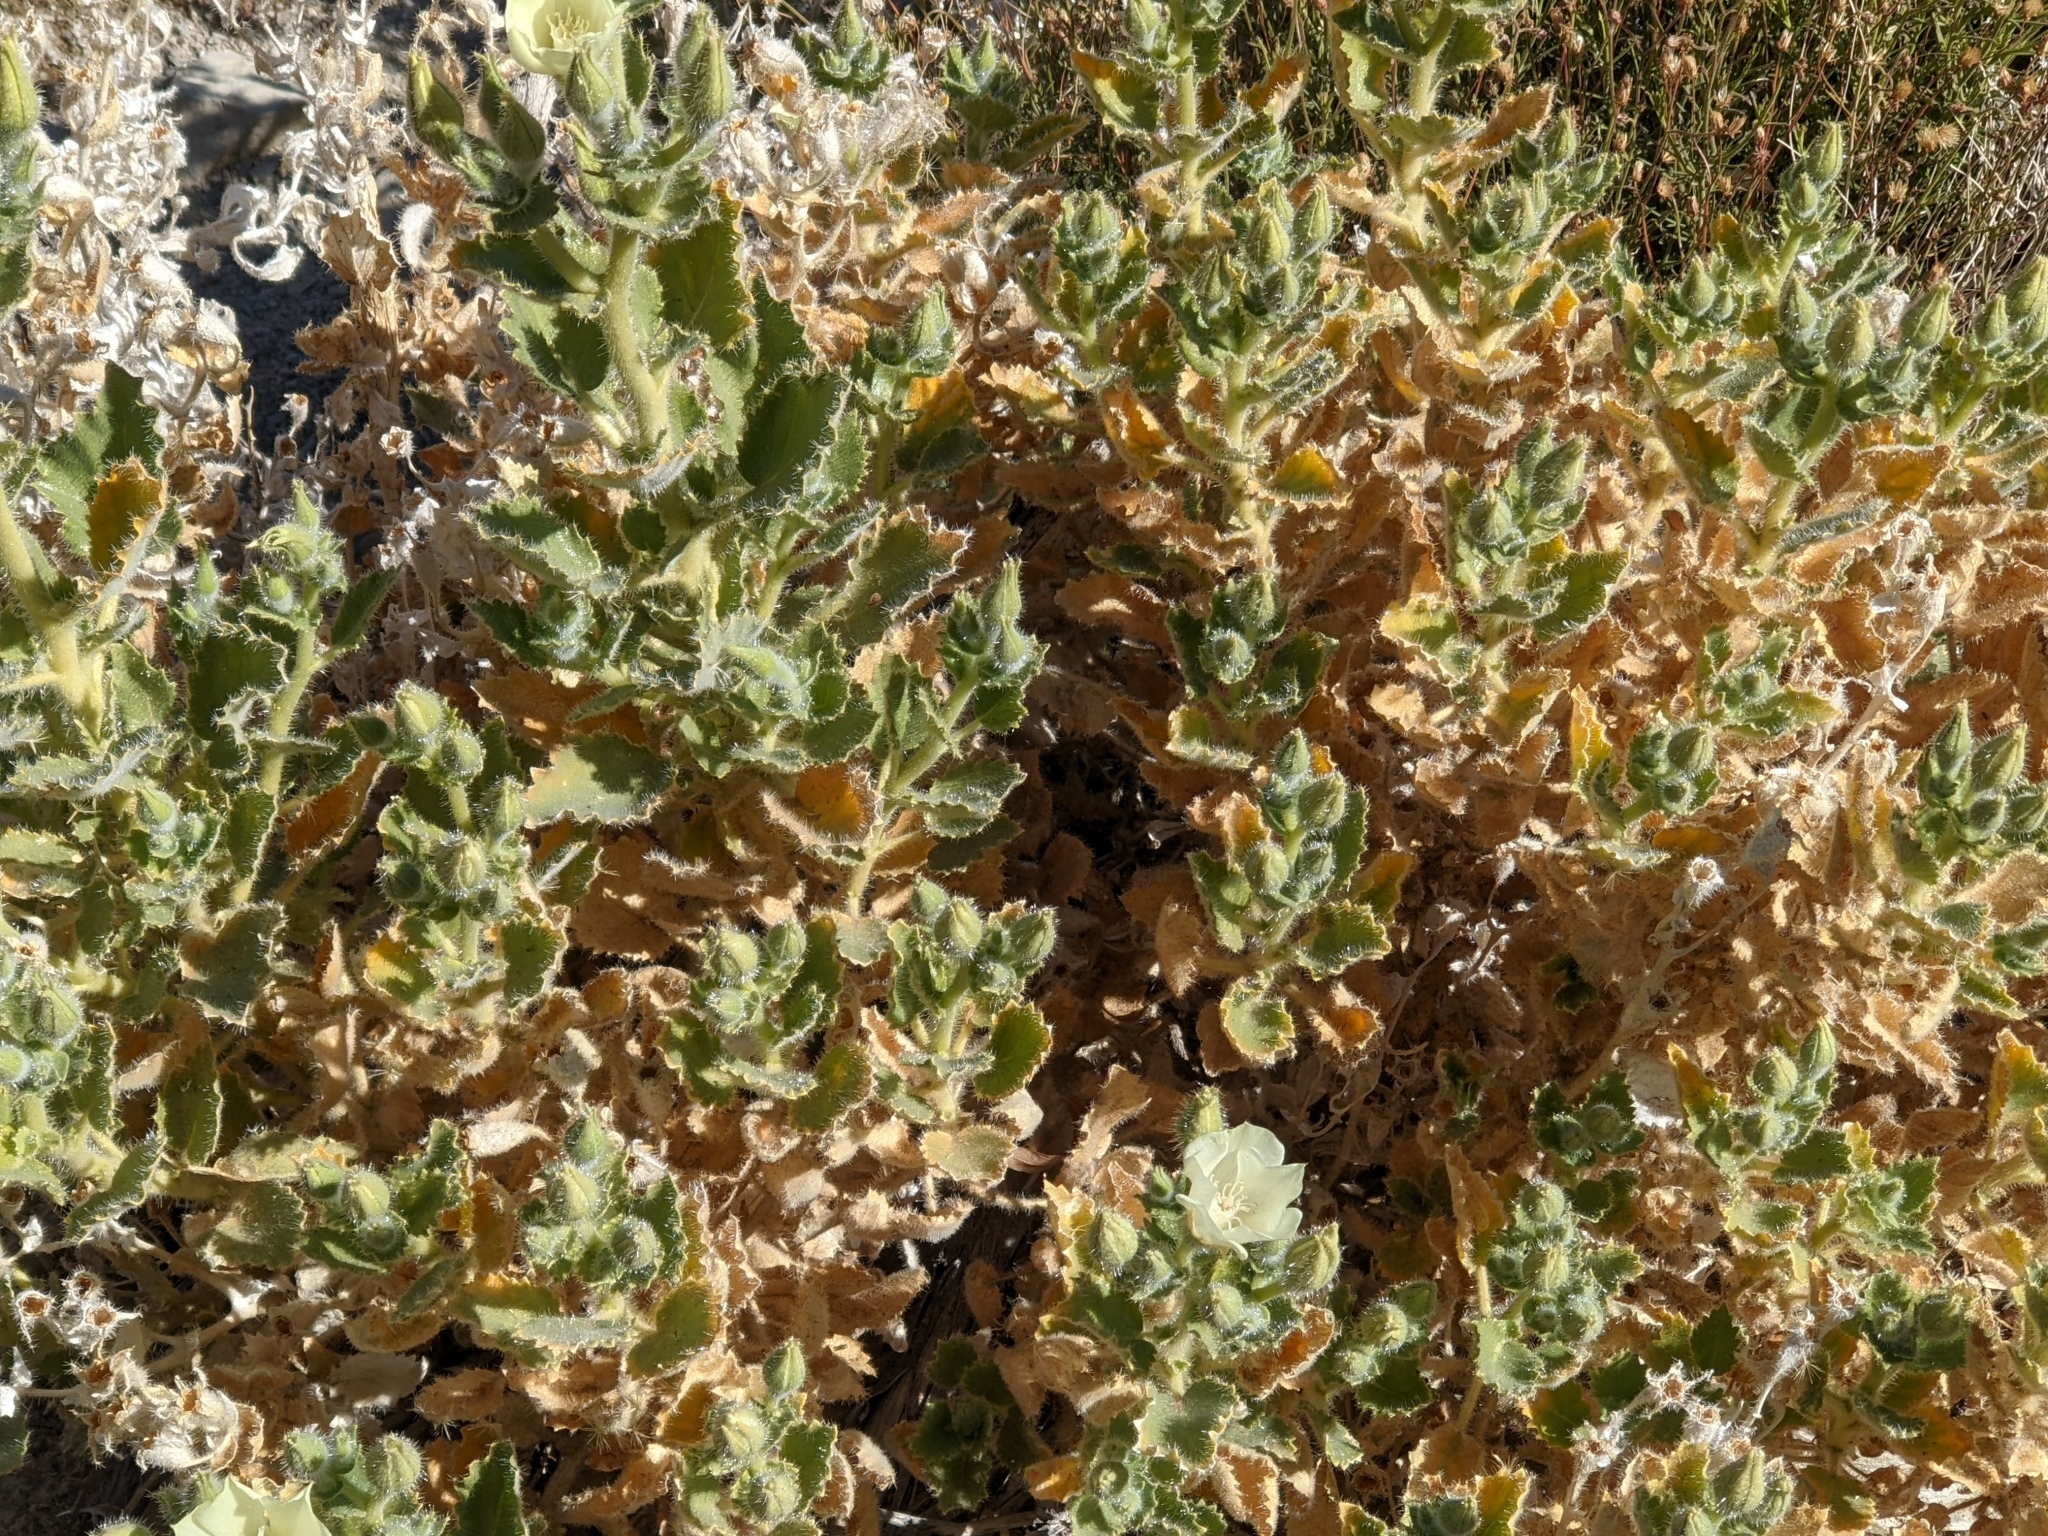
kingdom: Plantae
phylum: Tracheophyta
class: Magnoliopsida
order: Cornales
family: Loasaceae
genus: Eucnide
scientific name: Eucnide urens
